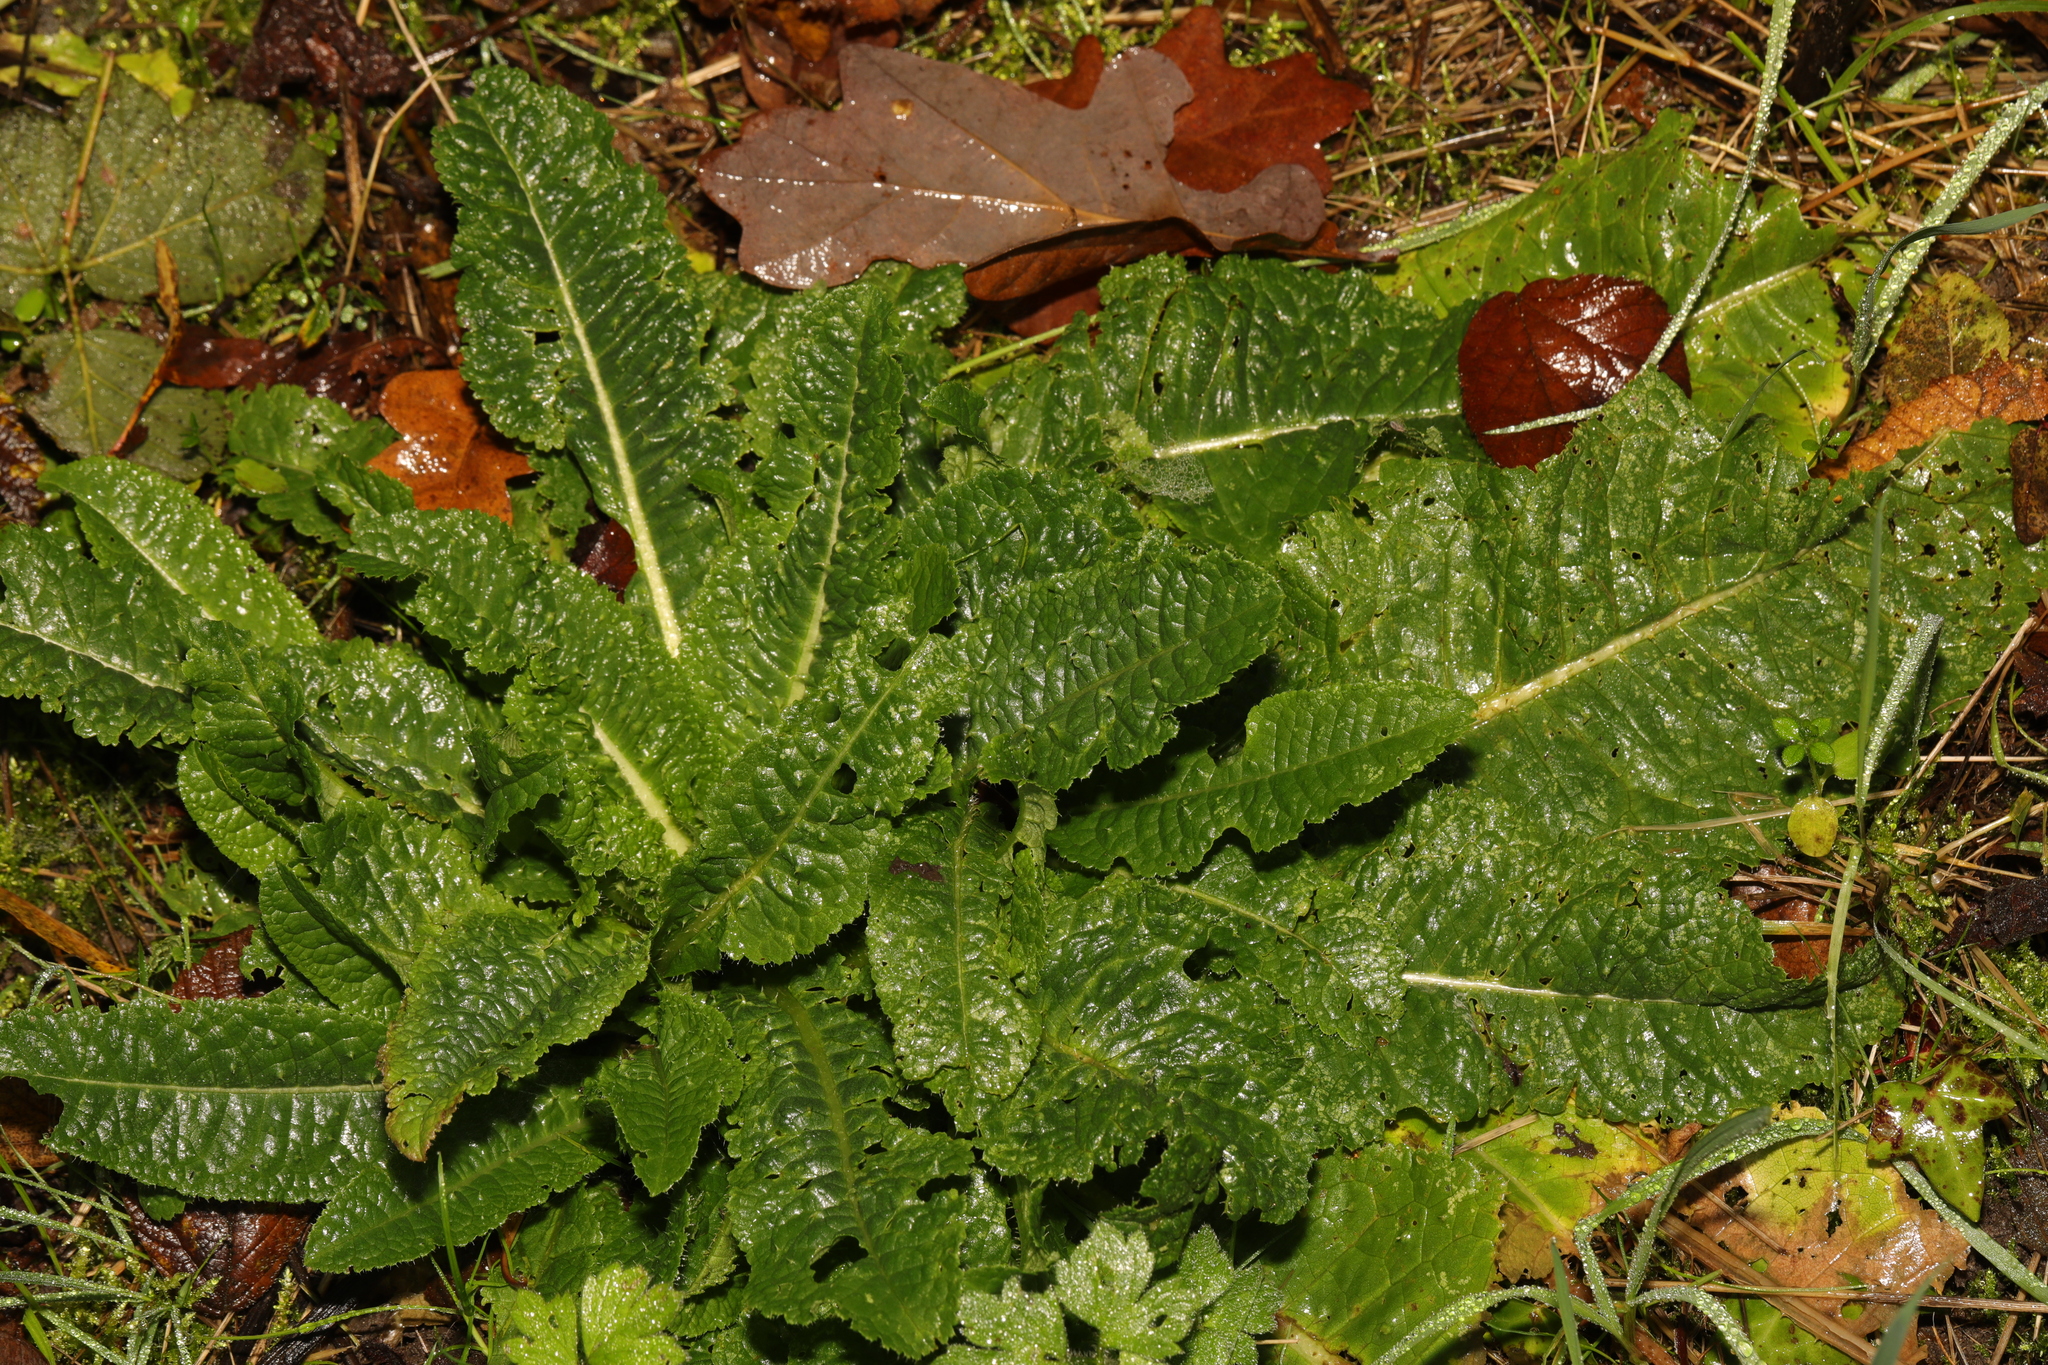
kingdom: Plantae
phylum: Tracheophyta
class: Magnoliopsida
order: Dipsacales
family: Caprifoliaceae
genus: Dipsacus
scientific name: Dipsacus fullonum
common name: Teasel
